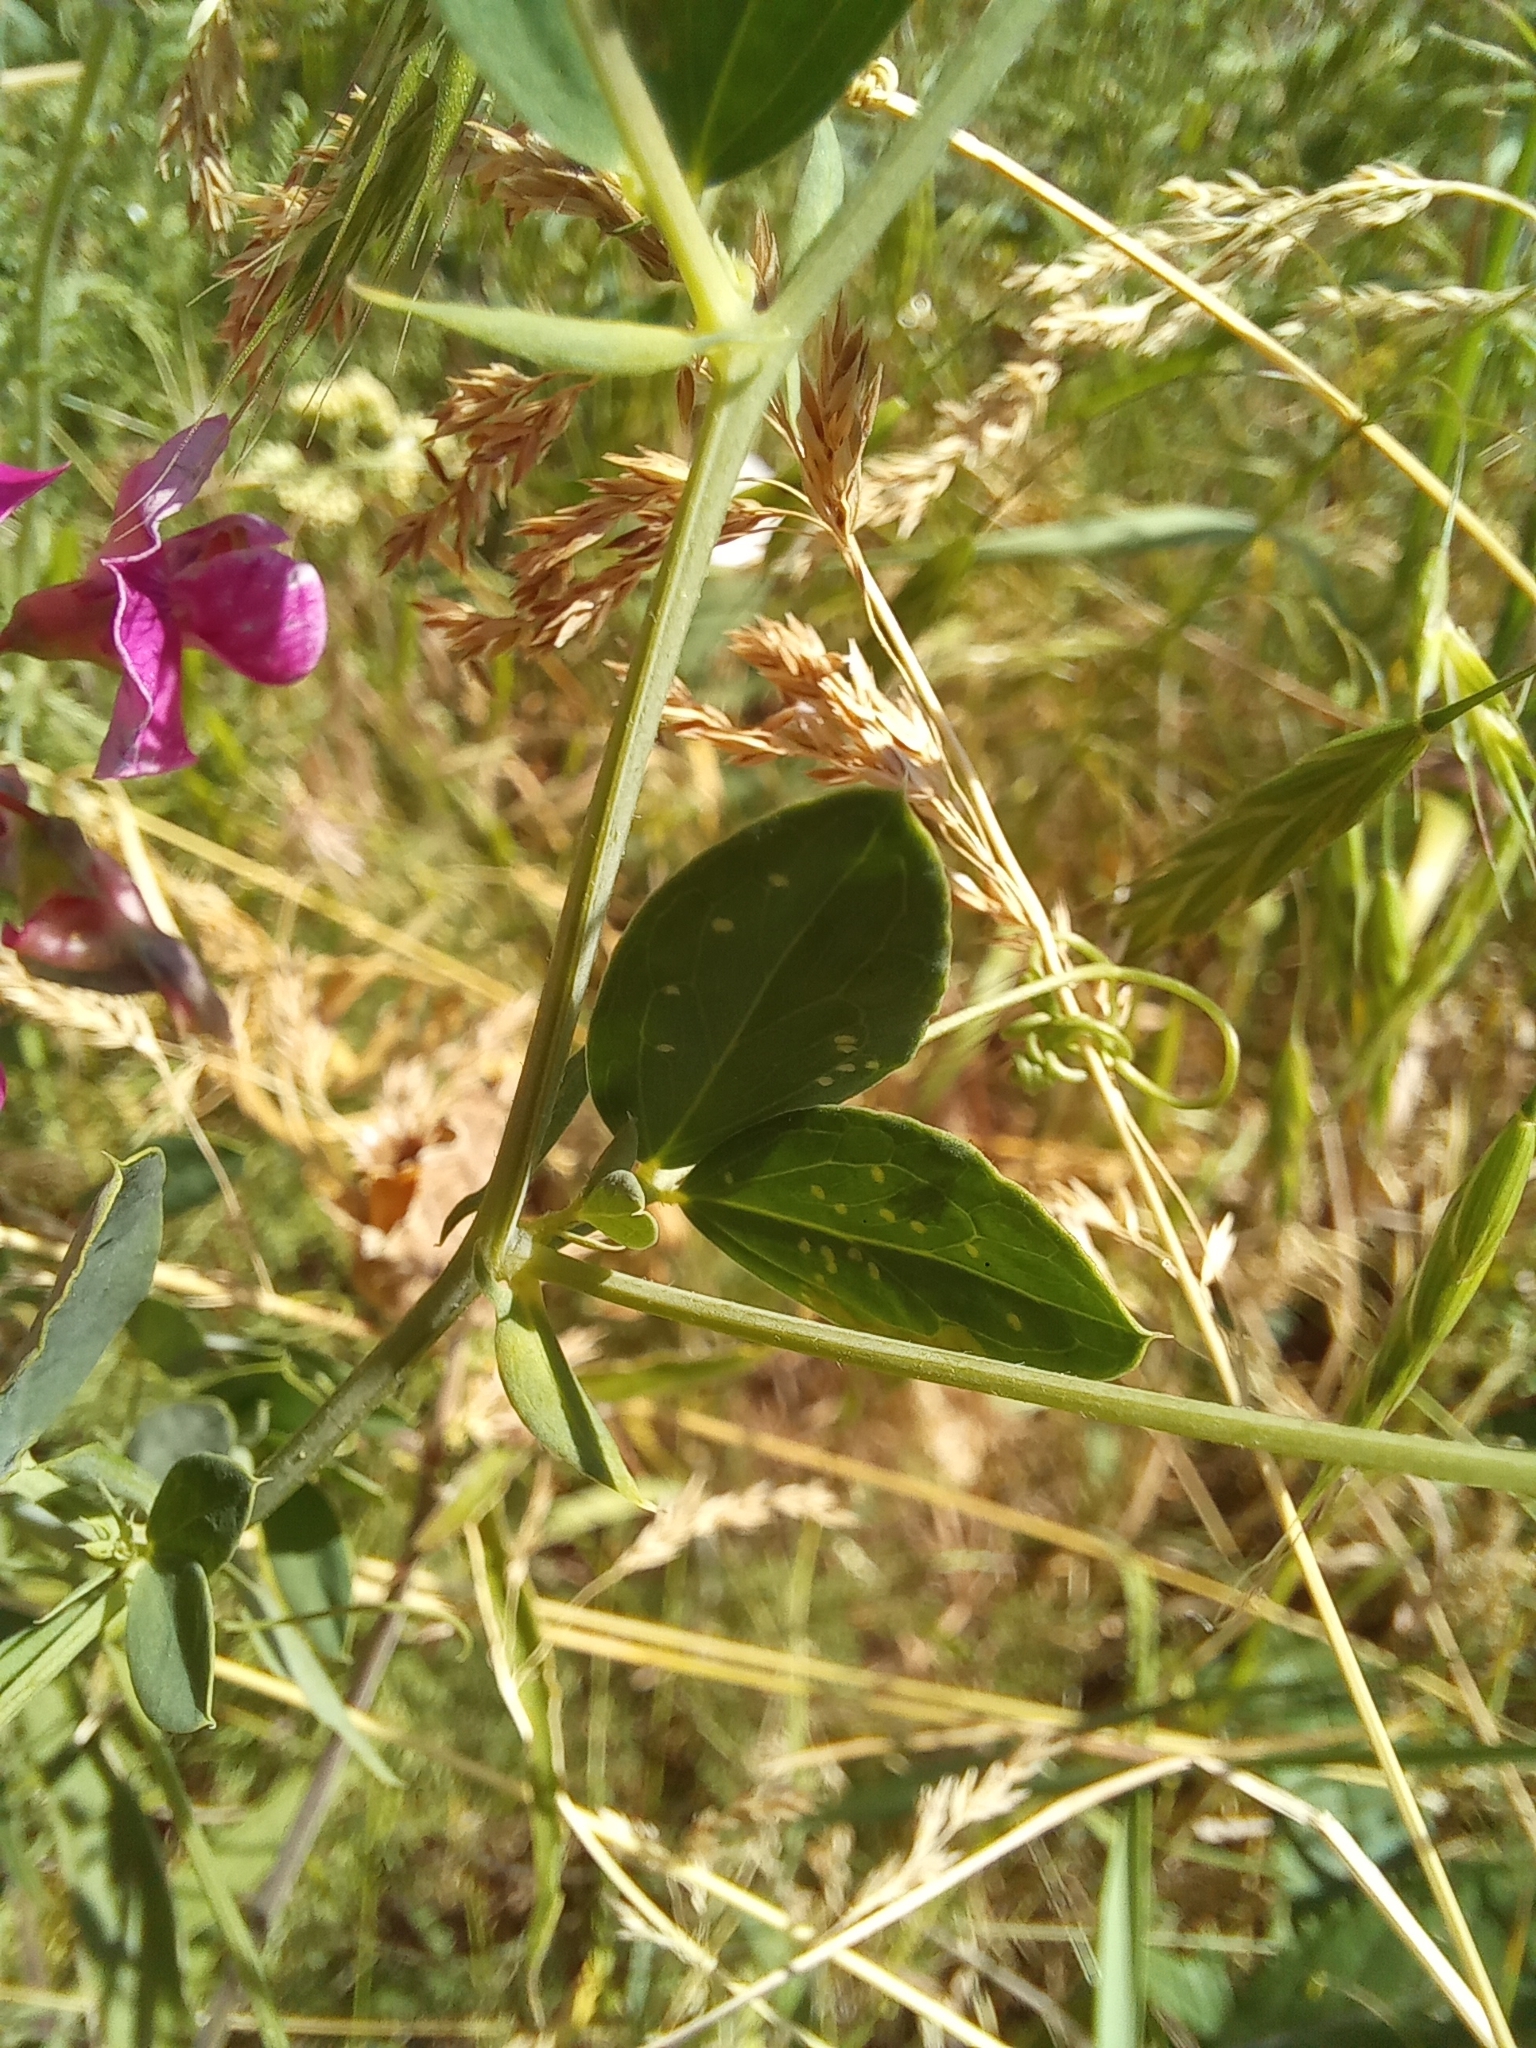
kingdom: Plantae
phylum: Tracheophyta
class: Magnoliopsida
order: Fabales
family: Fabaceae
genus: Lathyrus
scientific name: Lathyrus tuberosus
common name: Tuberous pea
